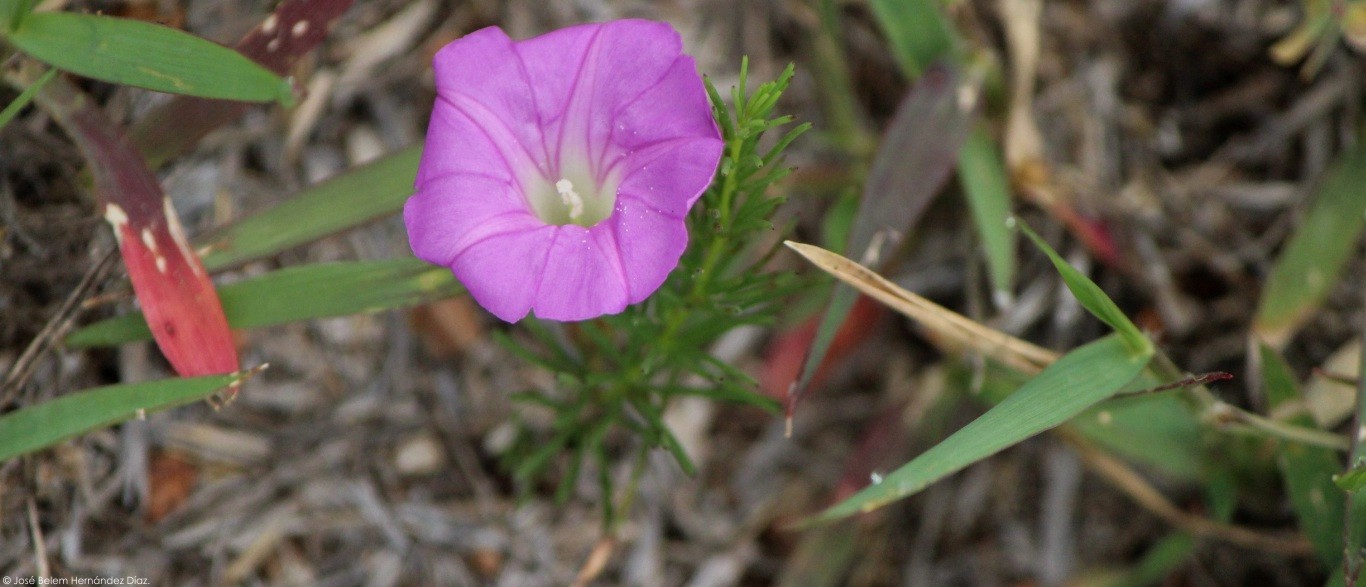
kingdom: Plantae
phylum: Tracheophyta
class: Magnoliopsida
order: Solanales
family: Convolvulaceae
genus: Ipomoea
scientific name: Ipomoea capillacea
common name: Purple morning-glory
